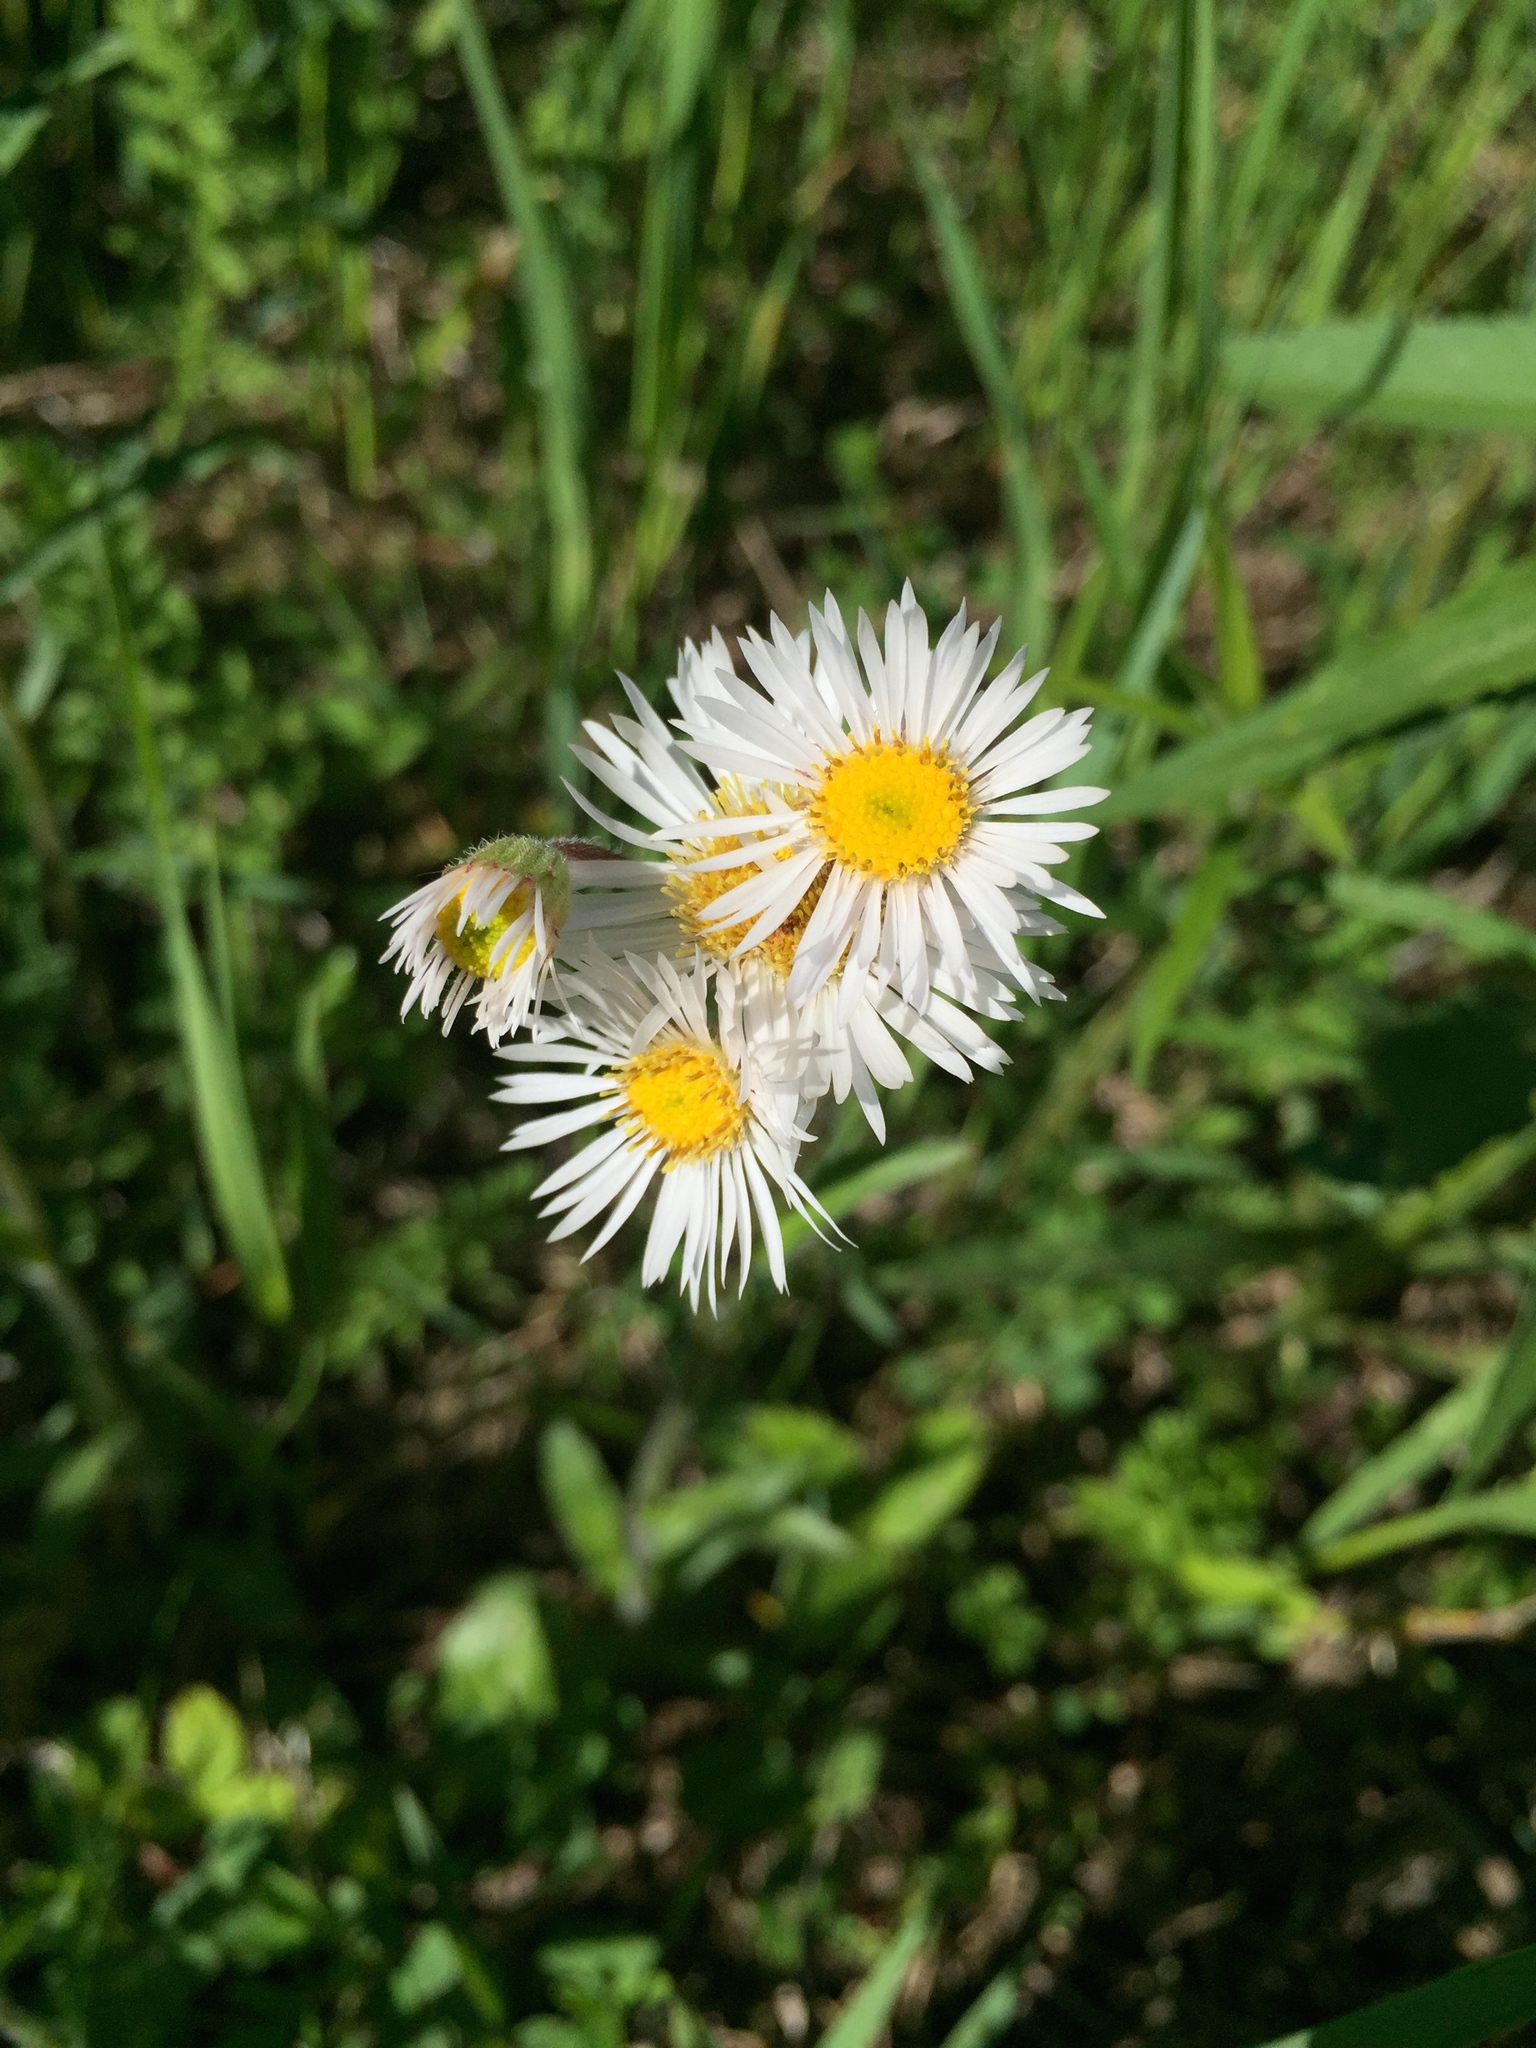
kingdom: Plantae
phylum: Tracheophyta
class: Magnoliopsida
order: Asterales
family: Asteraceae
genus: Erigeron
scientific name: Erigeron pulchellus
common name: Hairy fleabane
